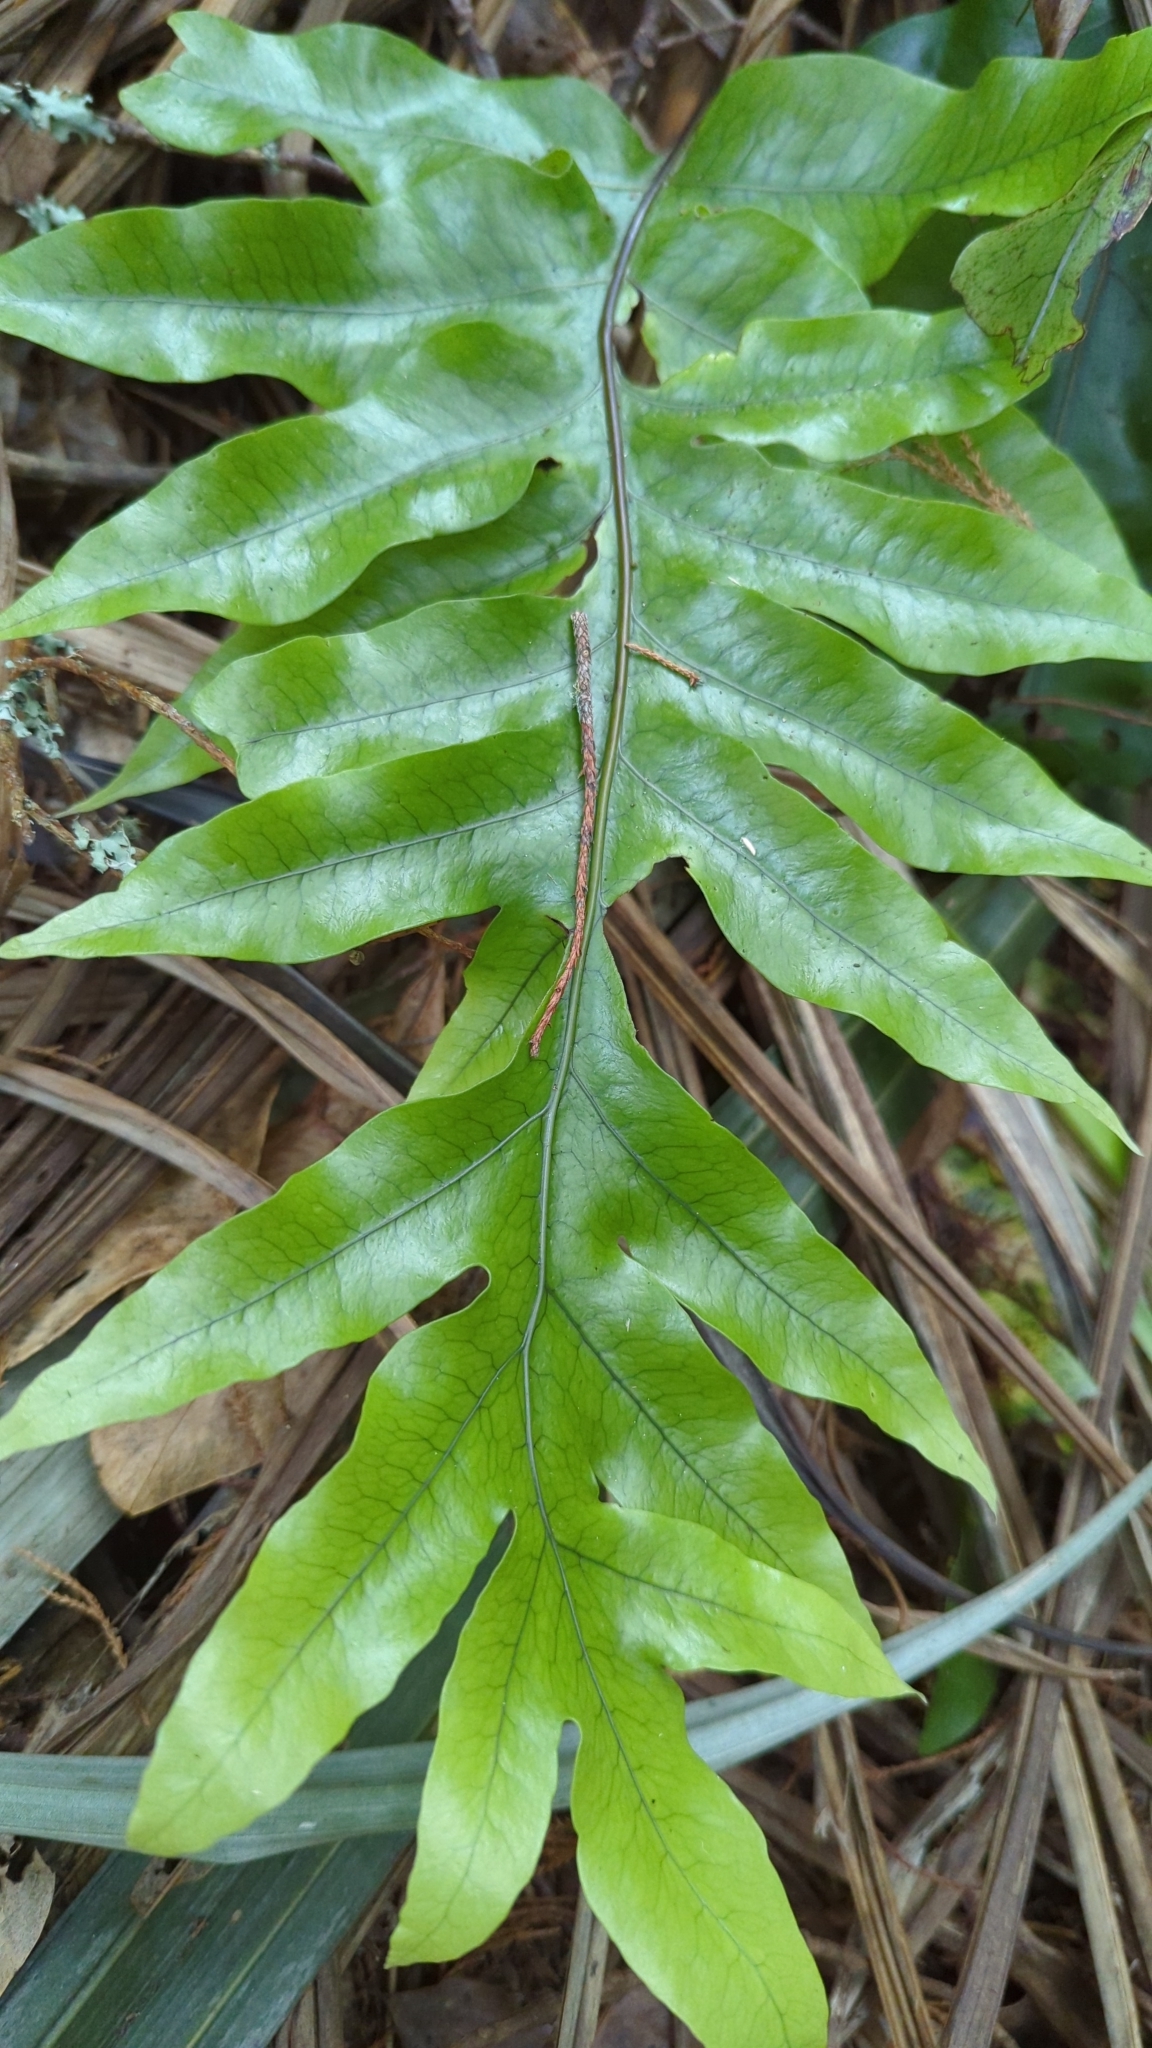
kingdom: Plantae
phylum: Tracheophyta
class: Polypodiopsida
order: Polypodiales
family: Polypodiaceae
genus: Lecanopteris
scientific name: Lecanopteris pustulata
